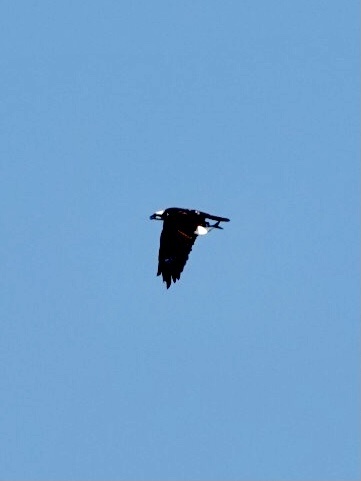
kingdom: Animalia
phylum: Chordata
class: Aves
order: Accipitriformes
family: Pandionidae
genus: Pandion
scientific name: Pandion haliaetus
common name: Osprey
